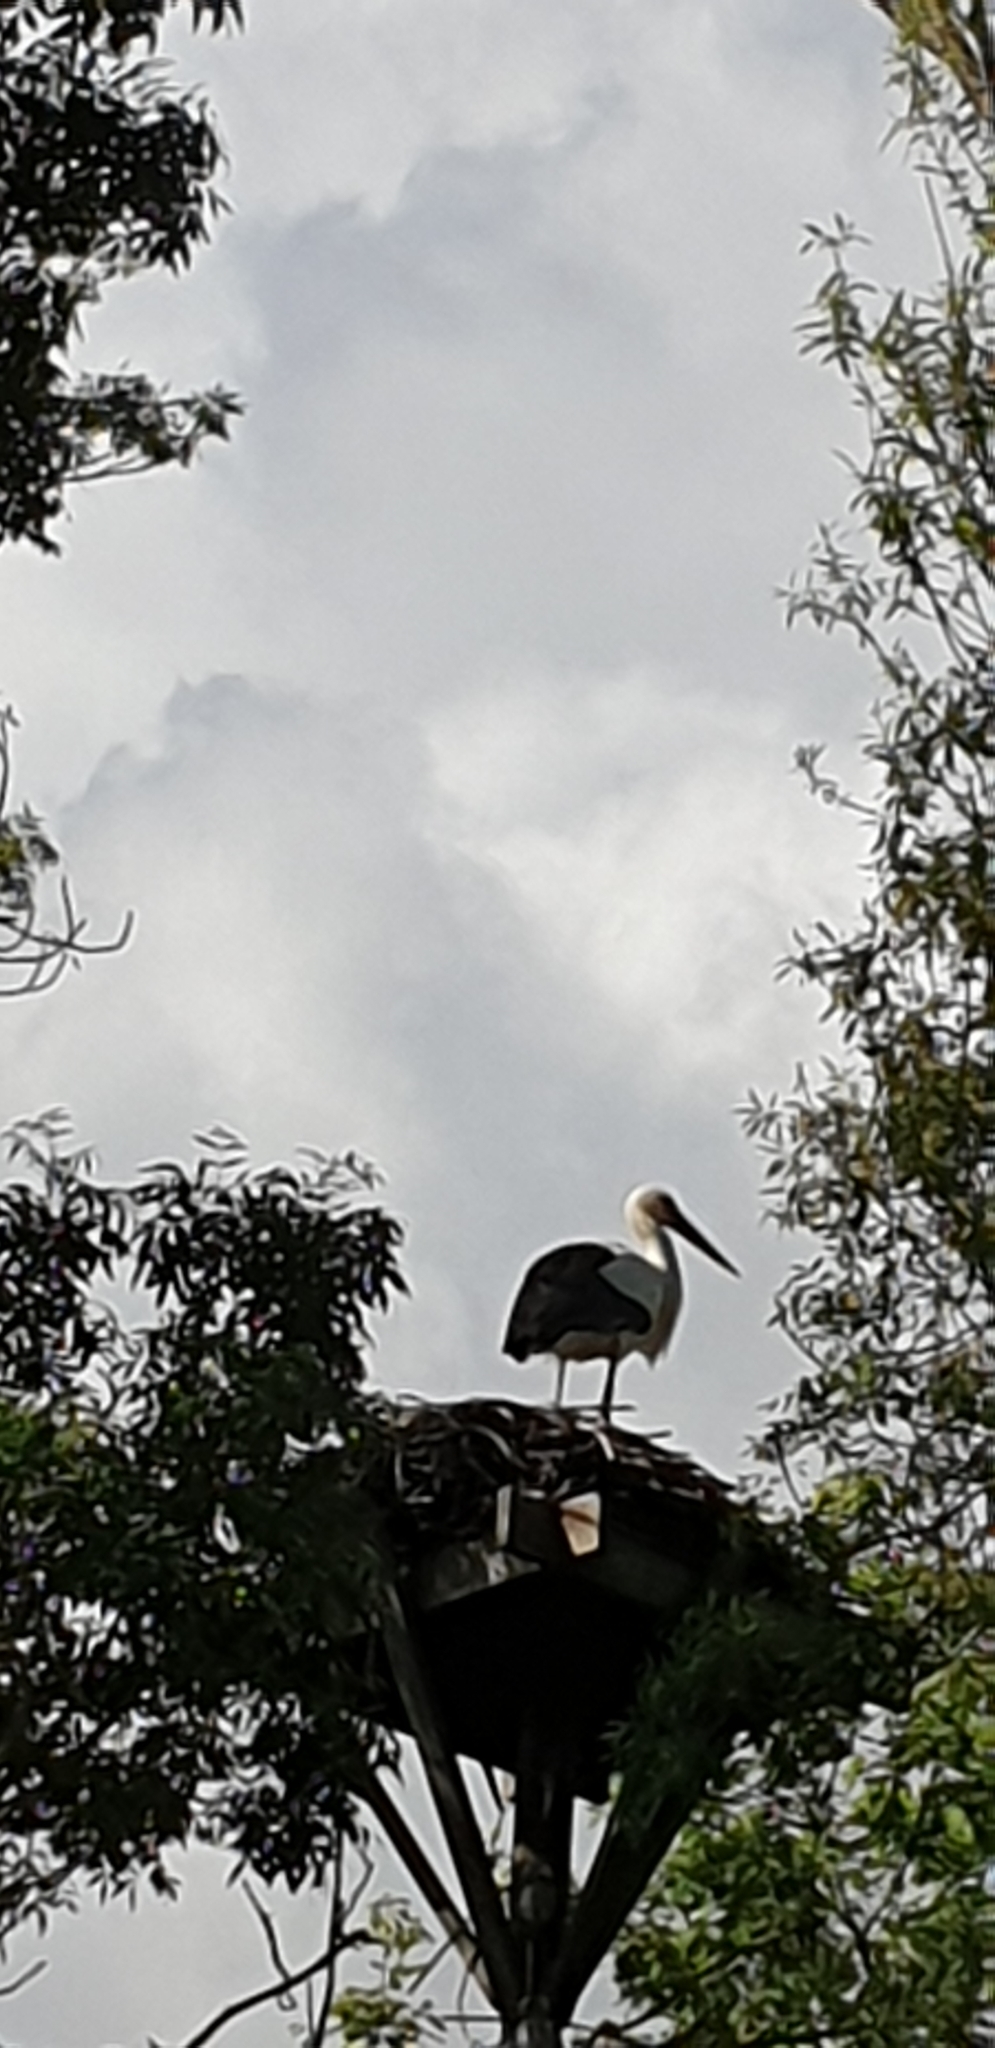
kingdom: Animalia
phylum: Chordata
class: Aves
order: Ciconiiformes
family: Ciconiidae
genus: Ciconia
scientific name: Ciconia ciconia
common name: White stork
